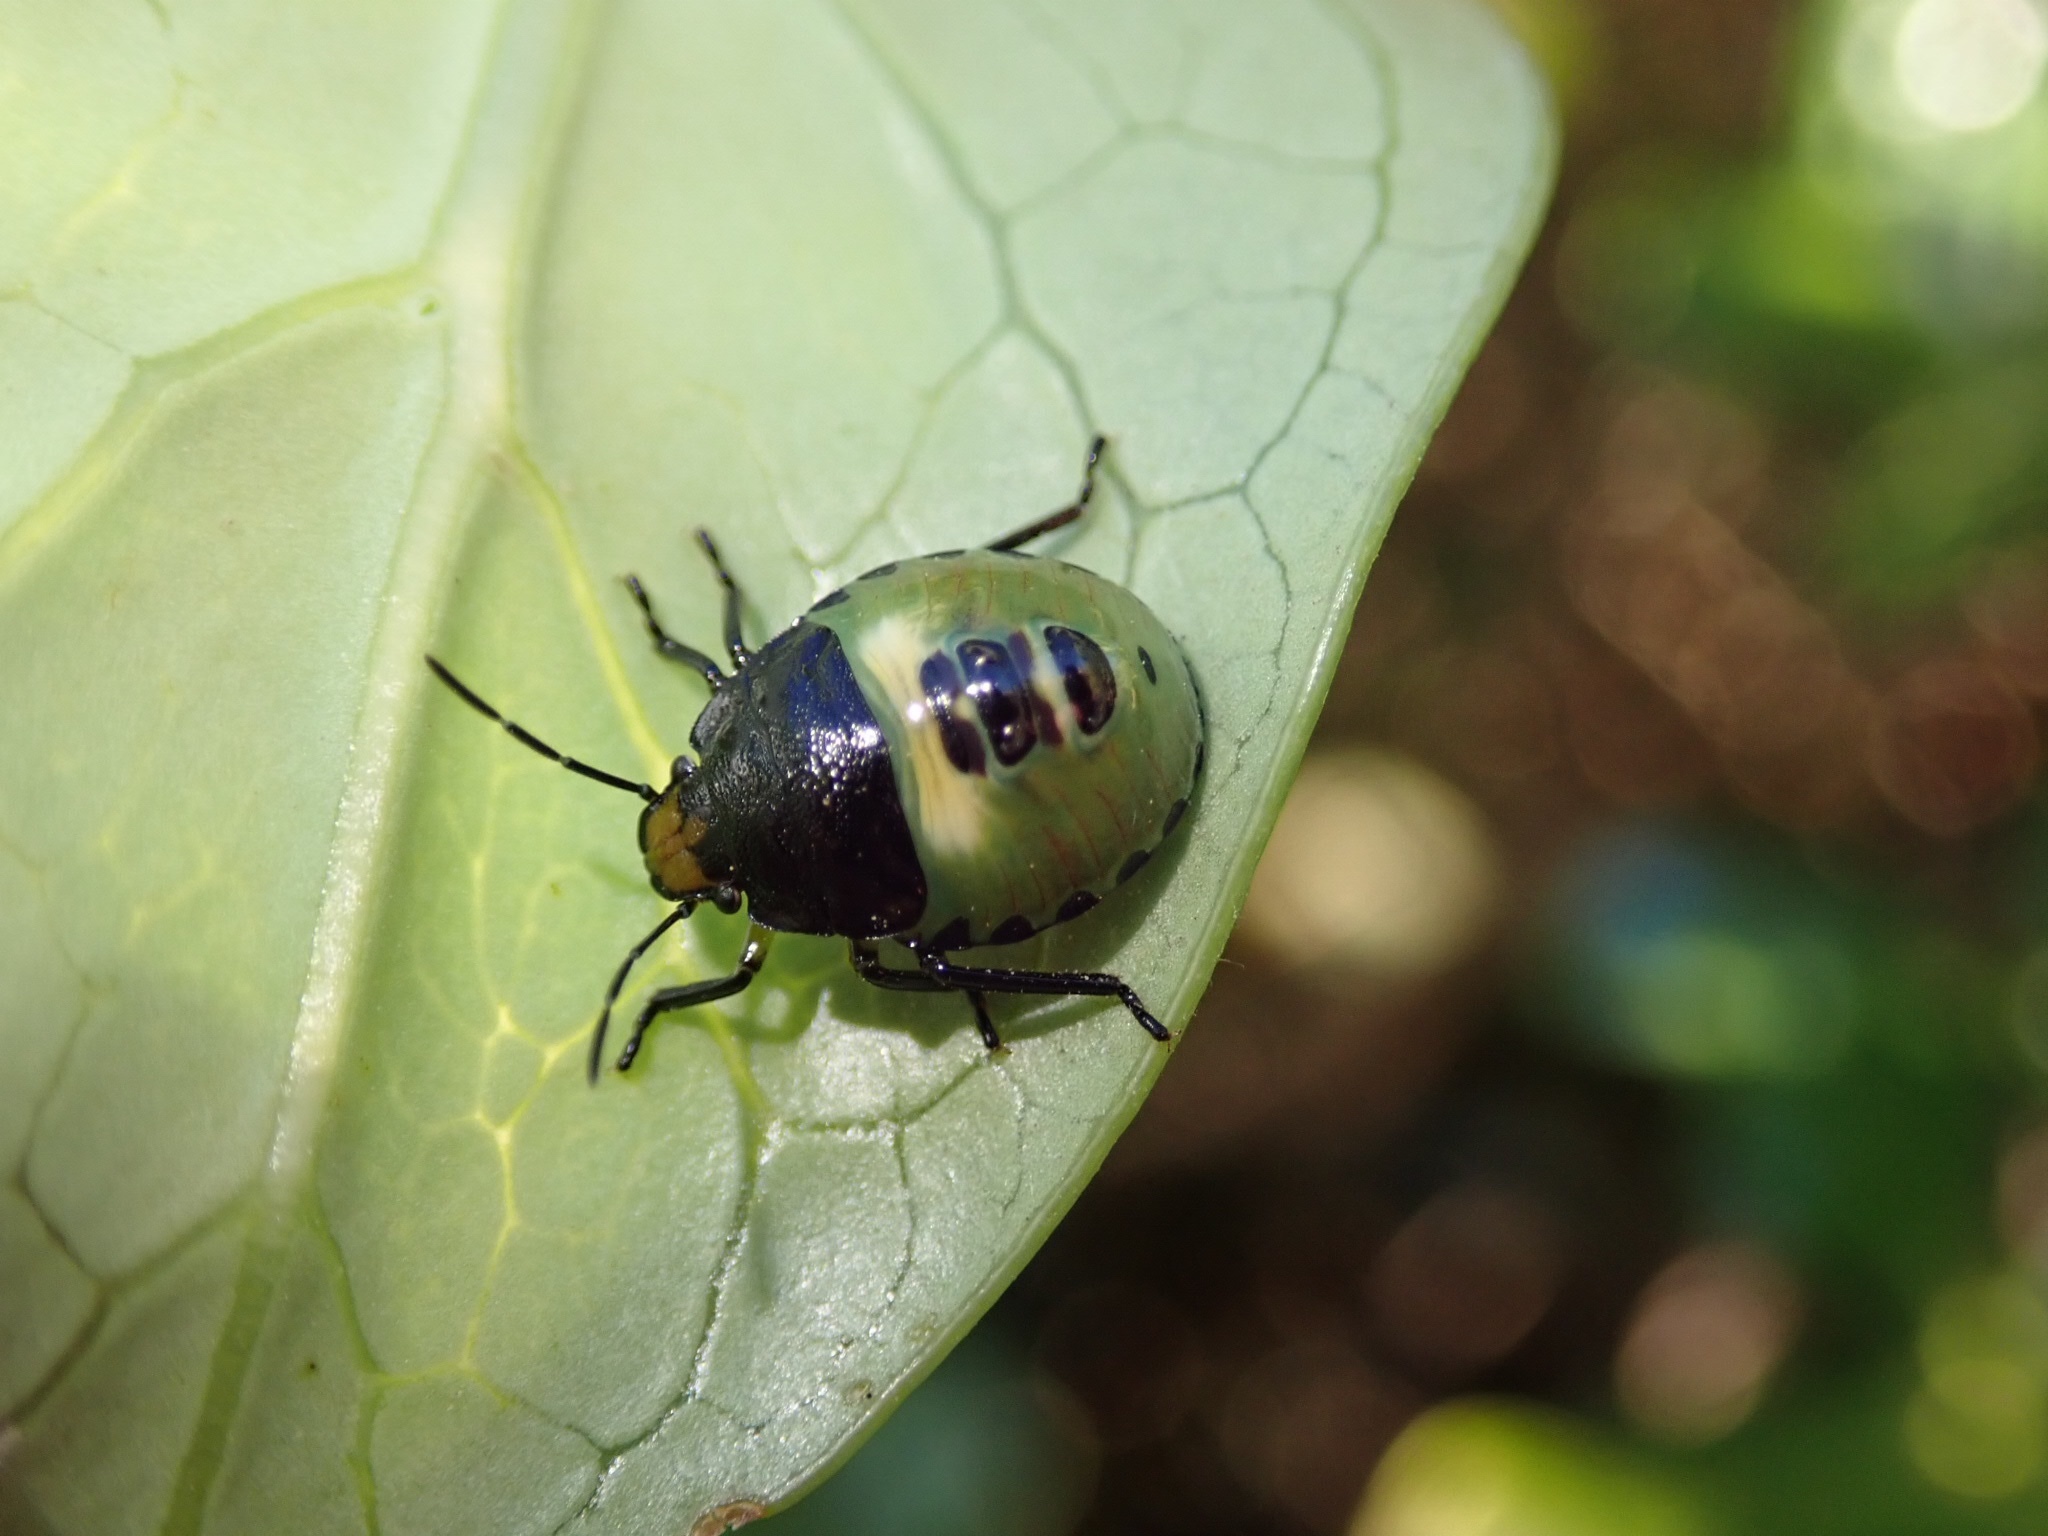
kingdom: Animalia
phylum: Arthropoda
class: Insecta
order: Hemiptera
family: Pentatomidae
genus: Glaucias
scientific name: Glaucias amyota
